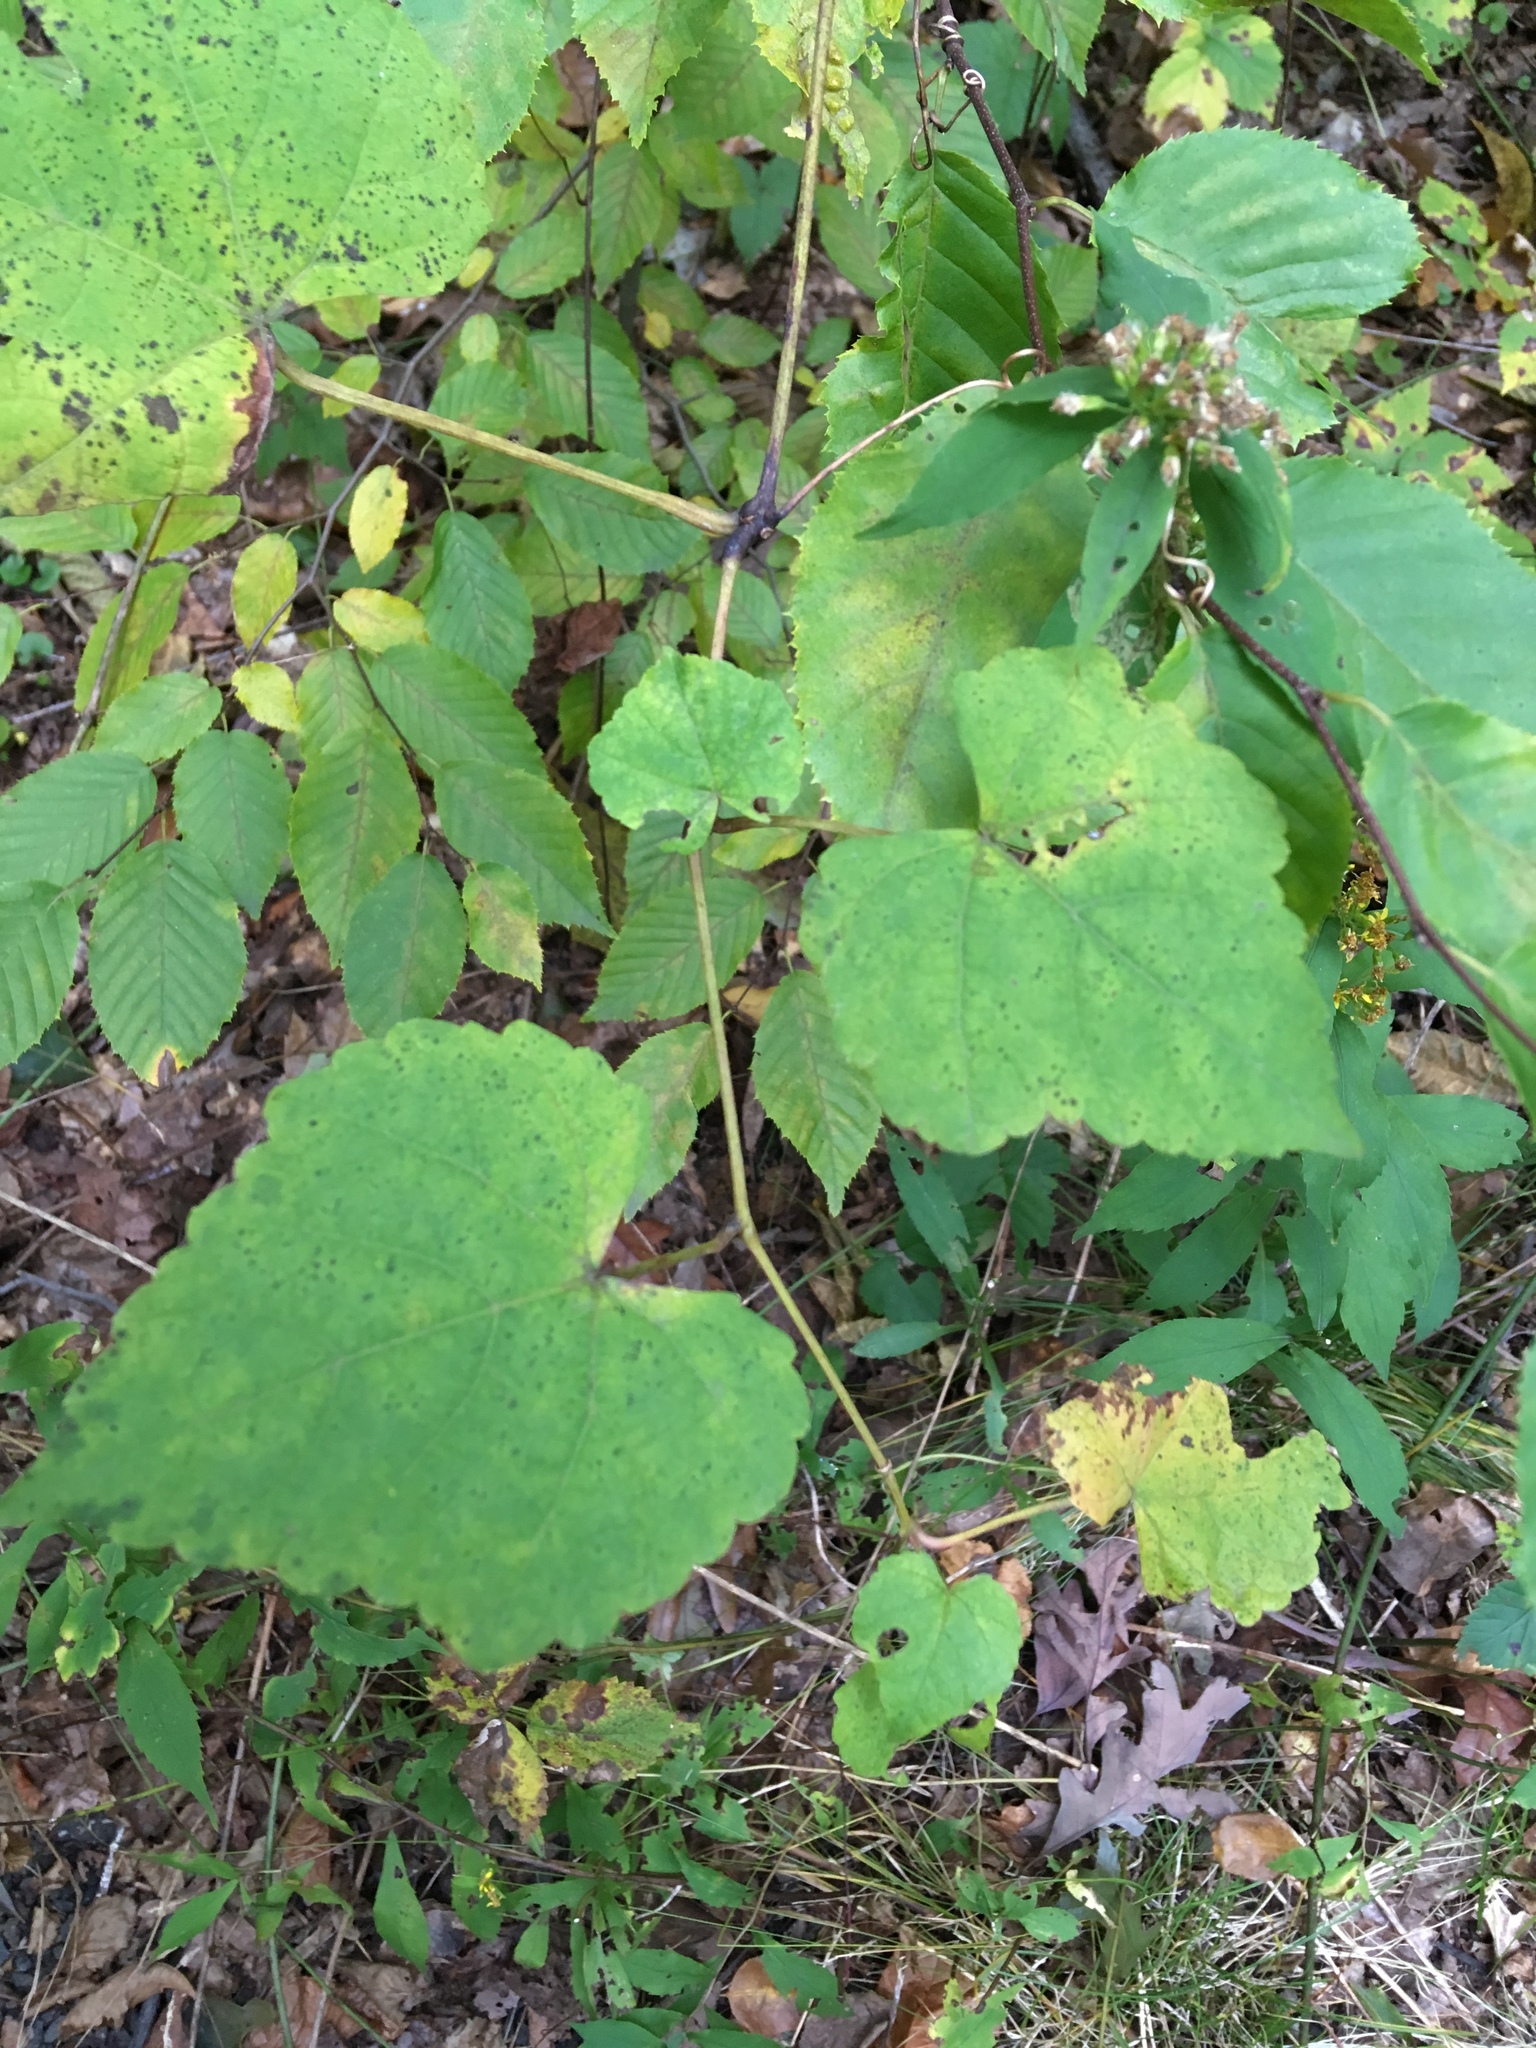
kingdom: Plantae
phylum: Tracheophyta
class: Magnoliopsida
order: Vitales
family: Vitaceae
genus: Ampelopsis
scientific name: Ampelopsis glandulosa
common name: Amur peppervine
